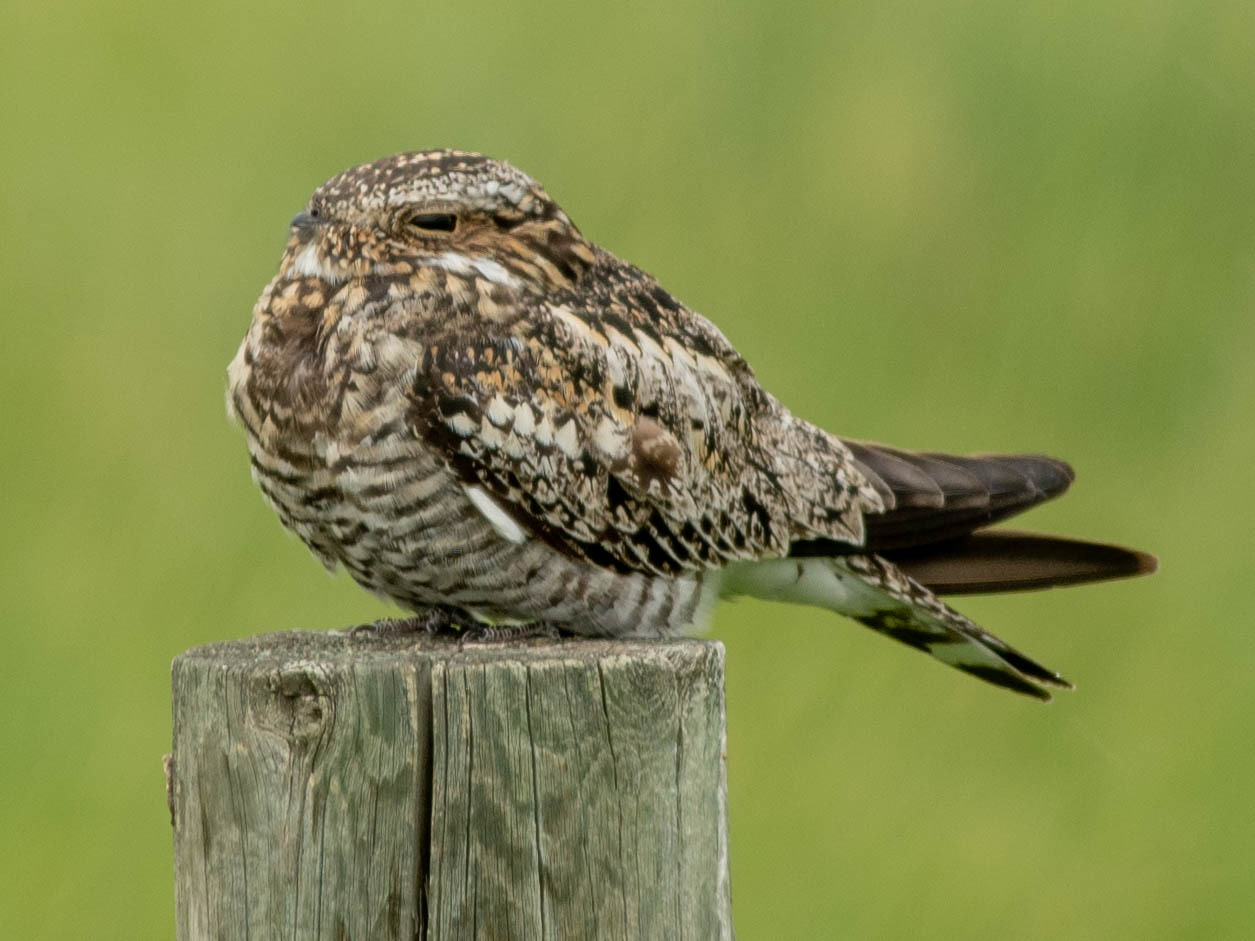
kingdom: Animalia
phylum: Chordata
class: Aves
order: Caprimulgiformes
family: Caprimulgidae
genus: Chordeiles
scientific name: Chordeiles minor
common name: Common nighthawk
